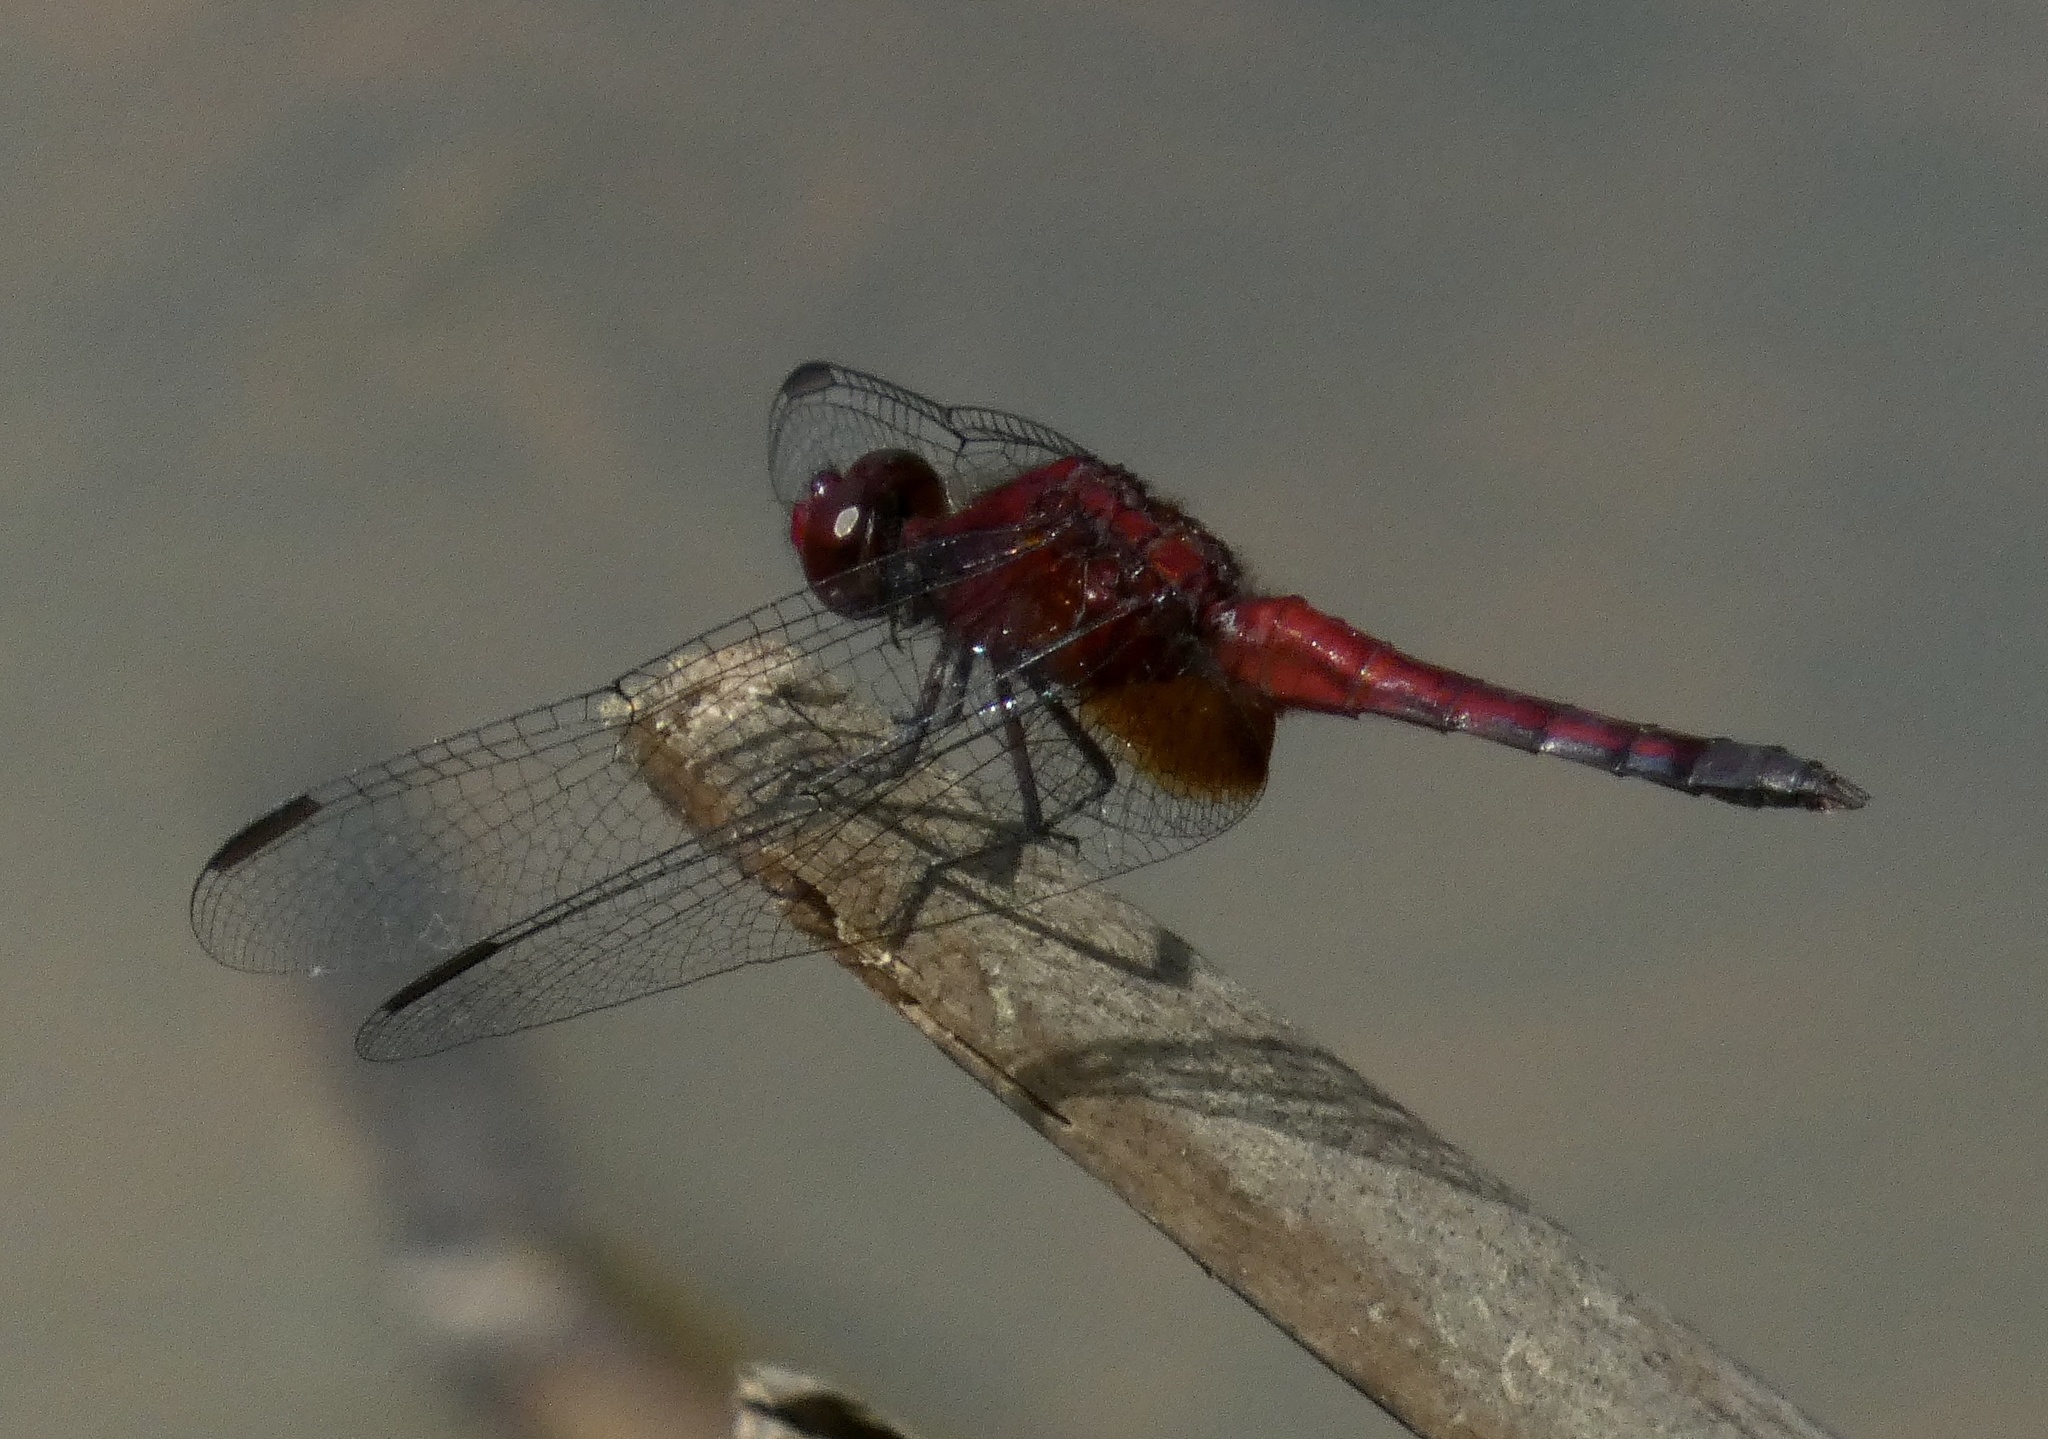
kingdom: Animalia
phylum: Arthropoda
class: Insecta
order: Odonata
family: Libellulidae
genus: Erythrodiplax
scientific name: Erythrodiplax fusca
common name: Red-faced dragonlet
